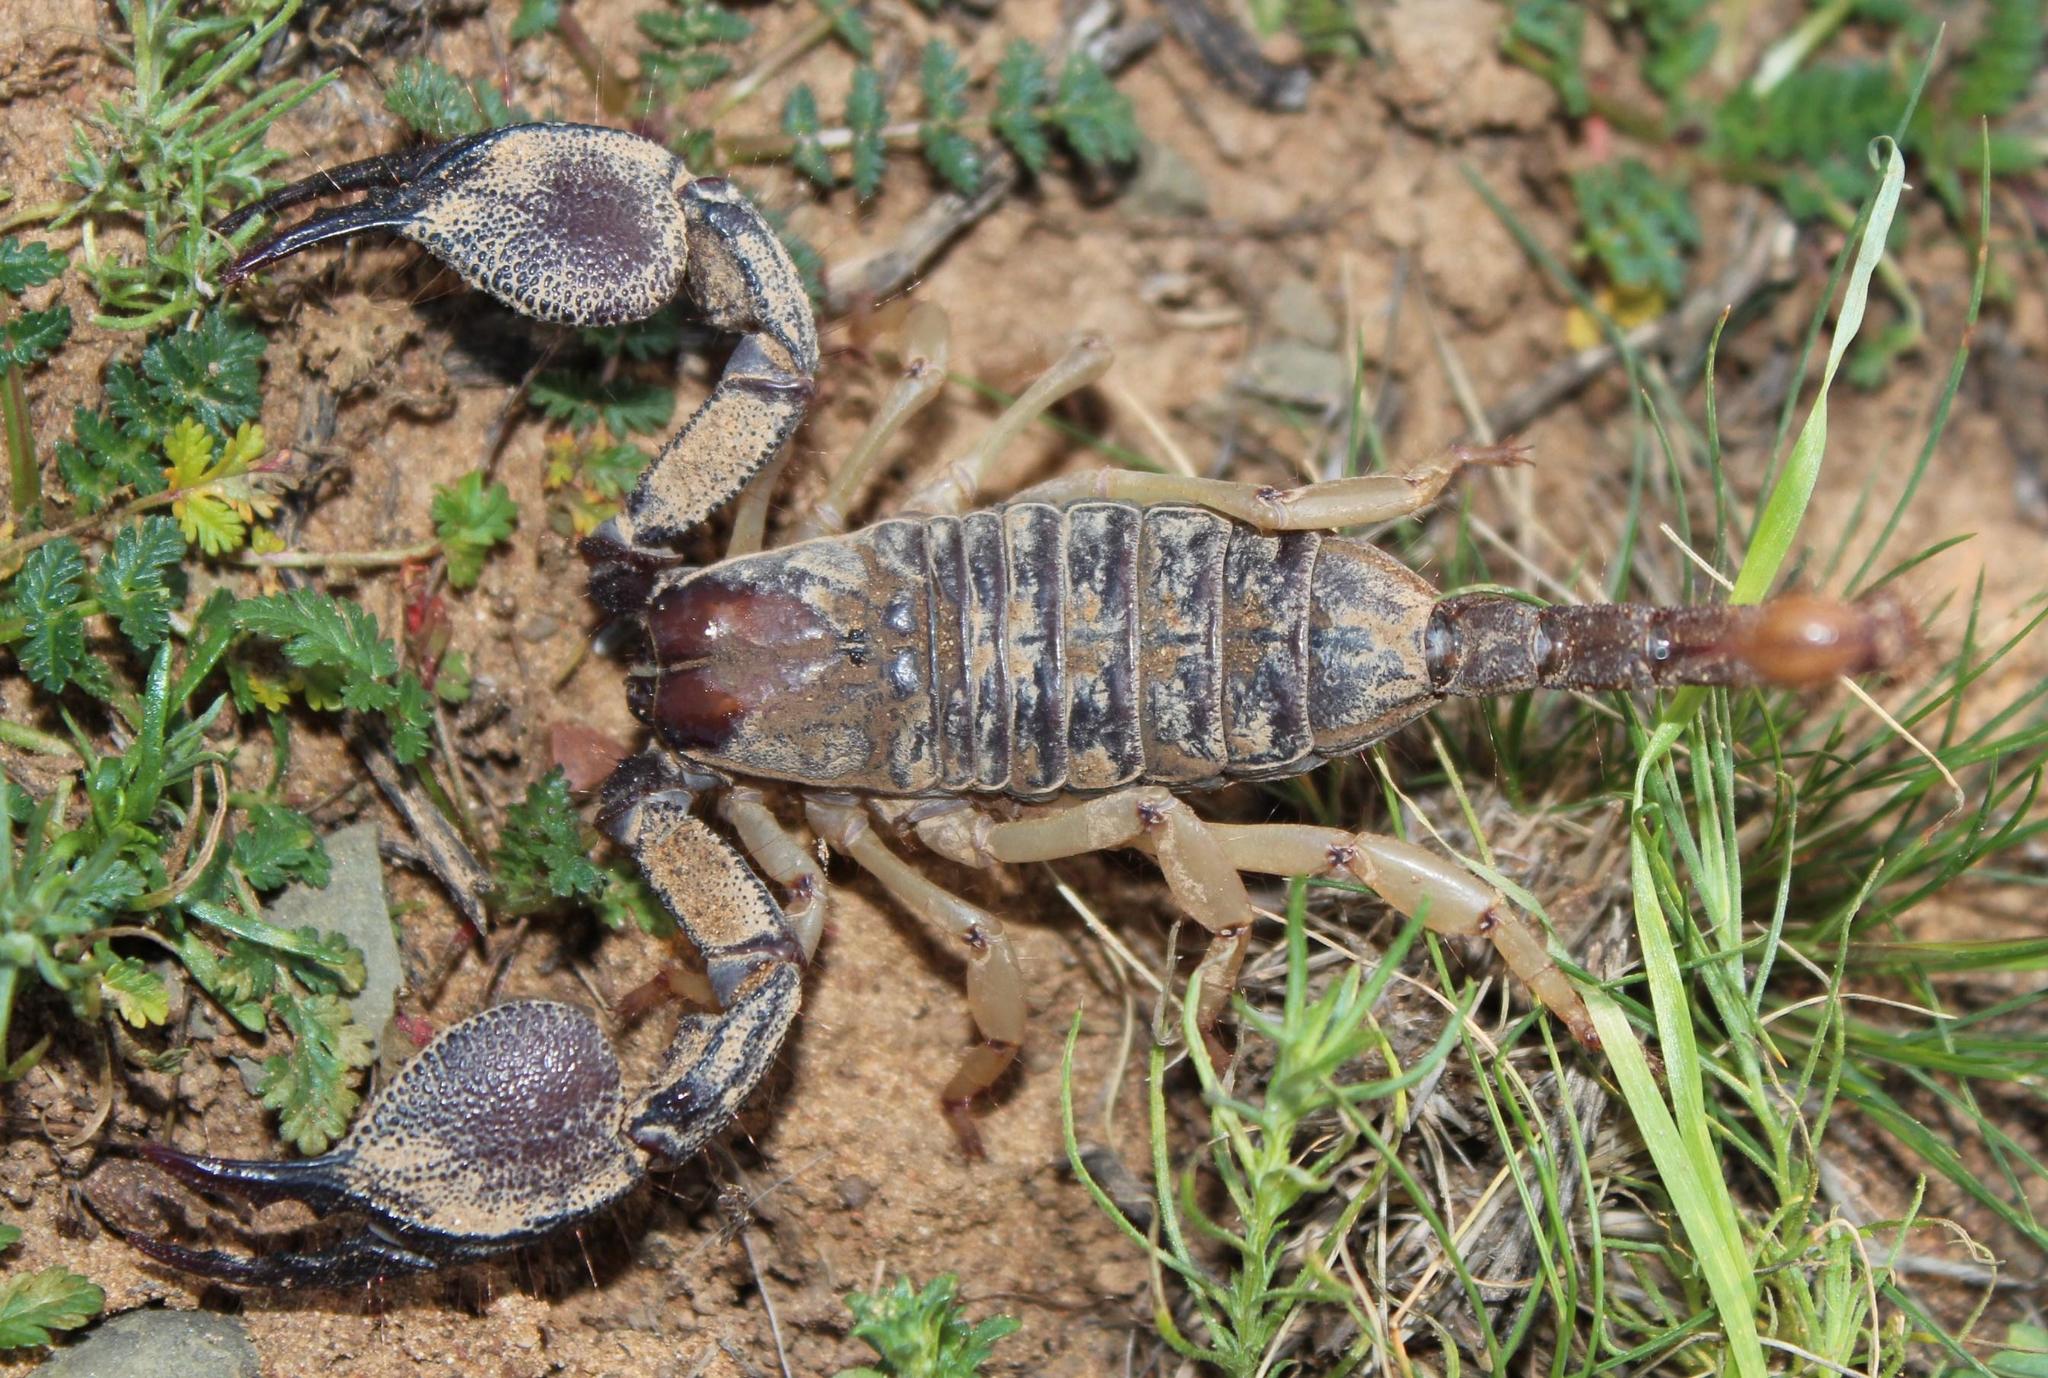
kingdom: Animalia
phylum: Arthropoda
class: Arachnida
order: Scorpiones
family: Scorpionidae
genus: Opistophthalmus
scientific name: Opistophthalmus austerus
